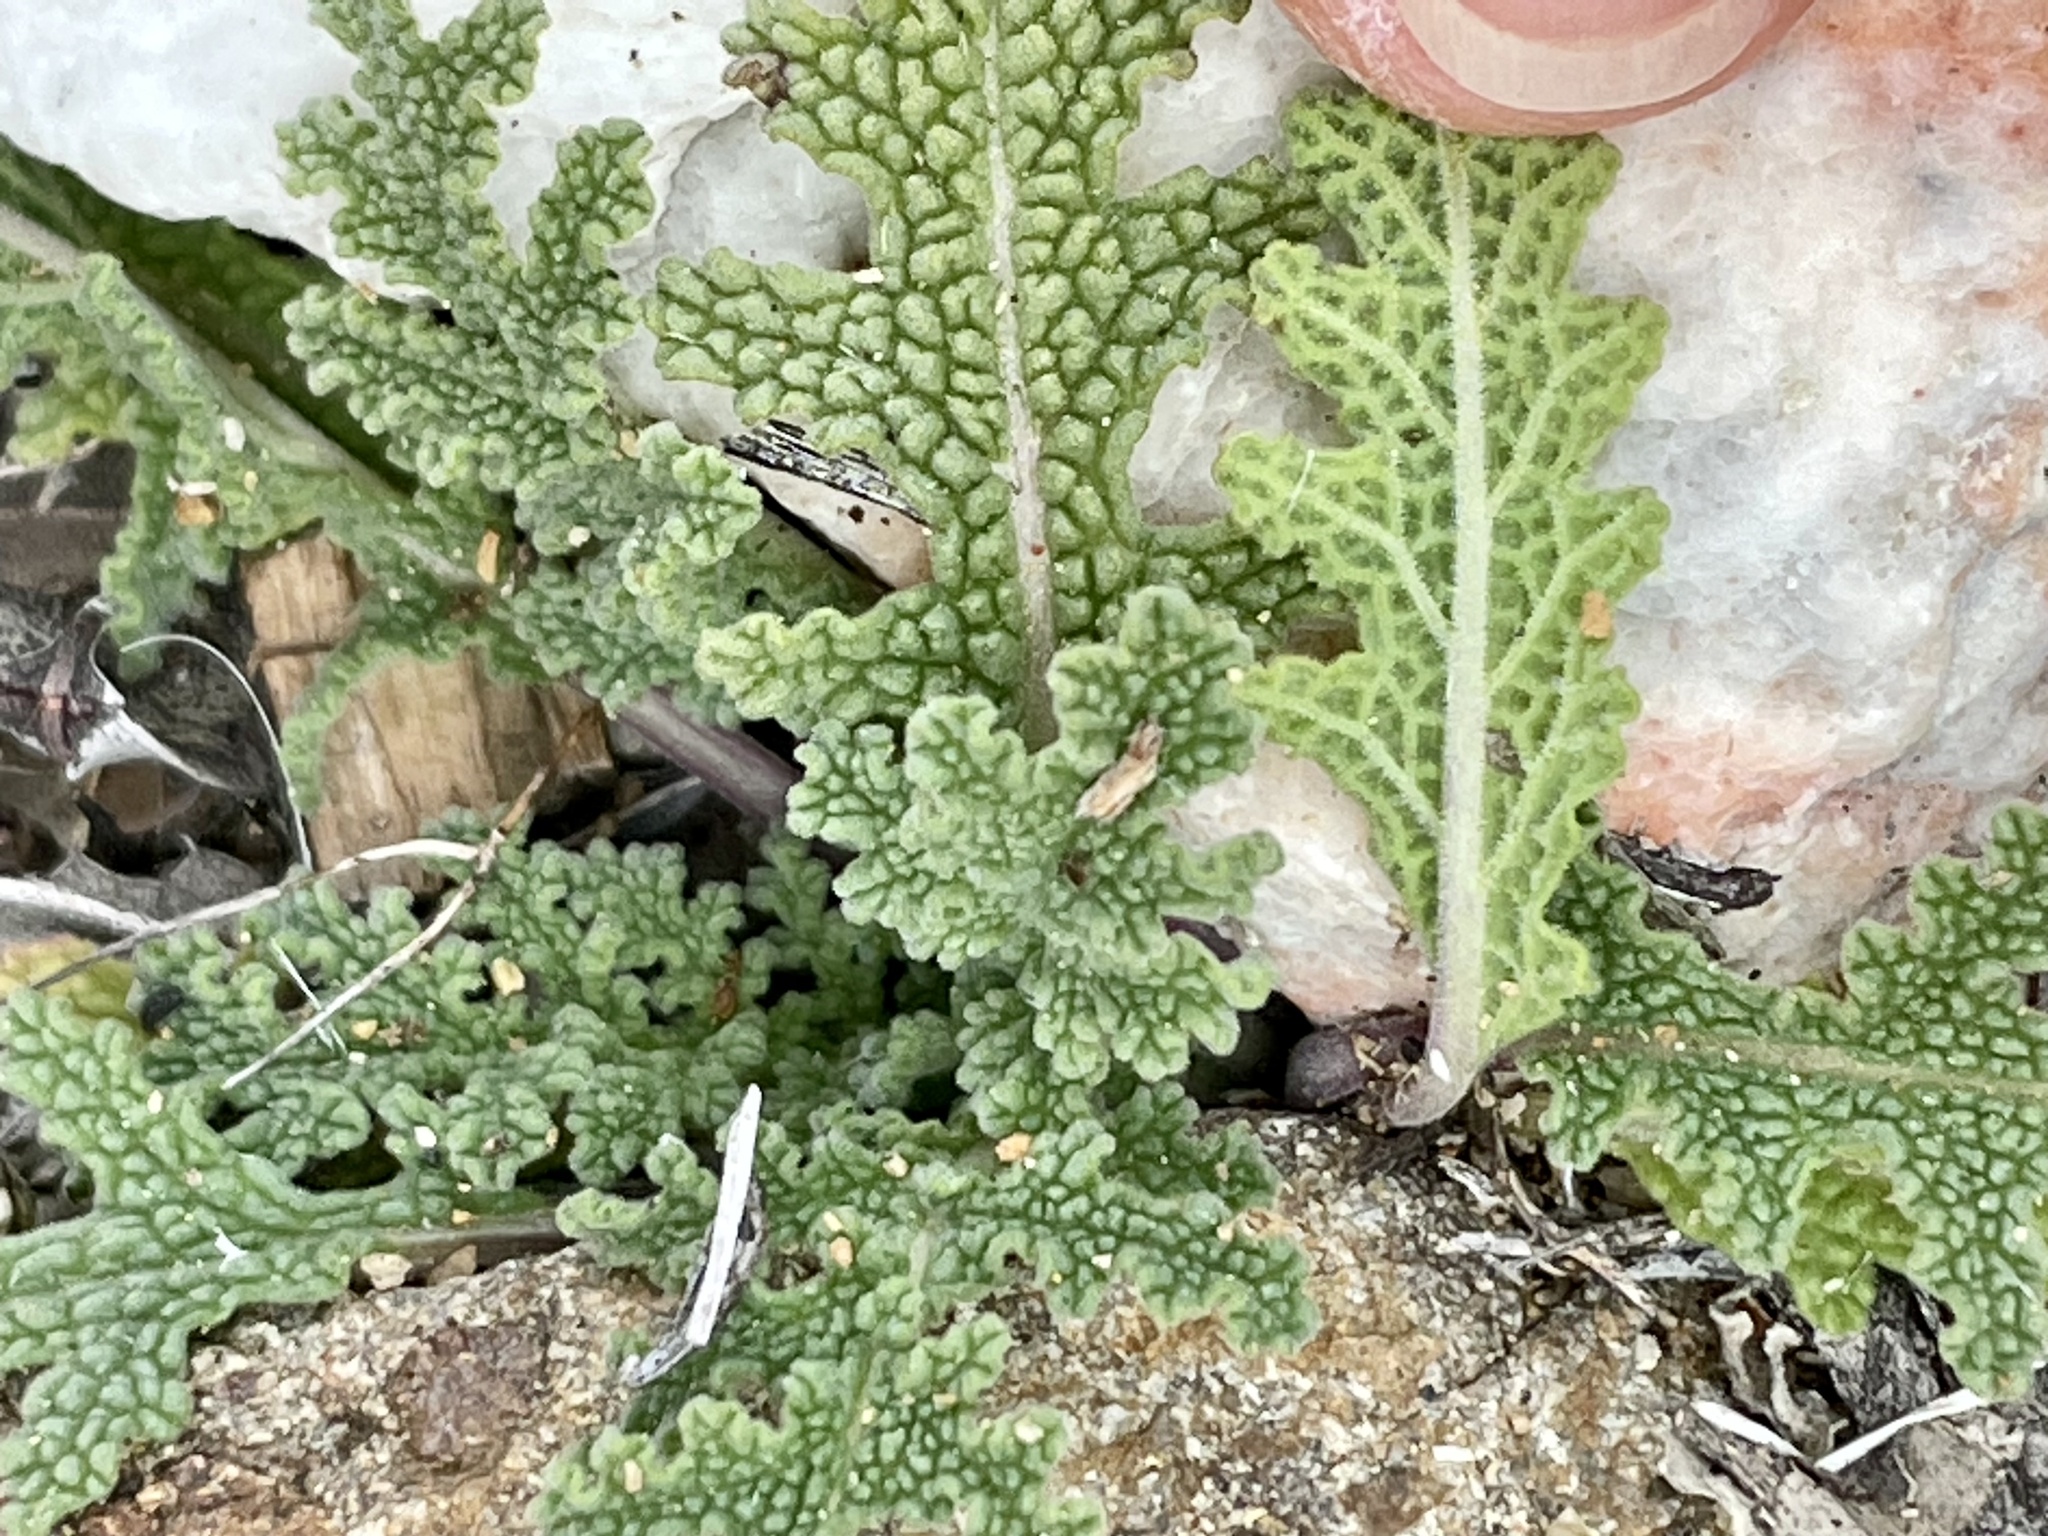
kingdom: Plantae
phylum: Tracheophyta
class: Magnoliopsida
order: Lamiales
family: Lamiaceae
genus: Salvia
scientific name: Salvia columbariae
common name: Chia
